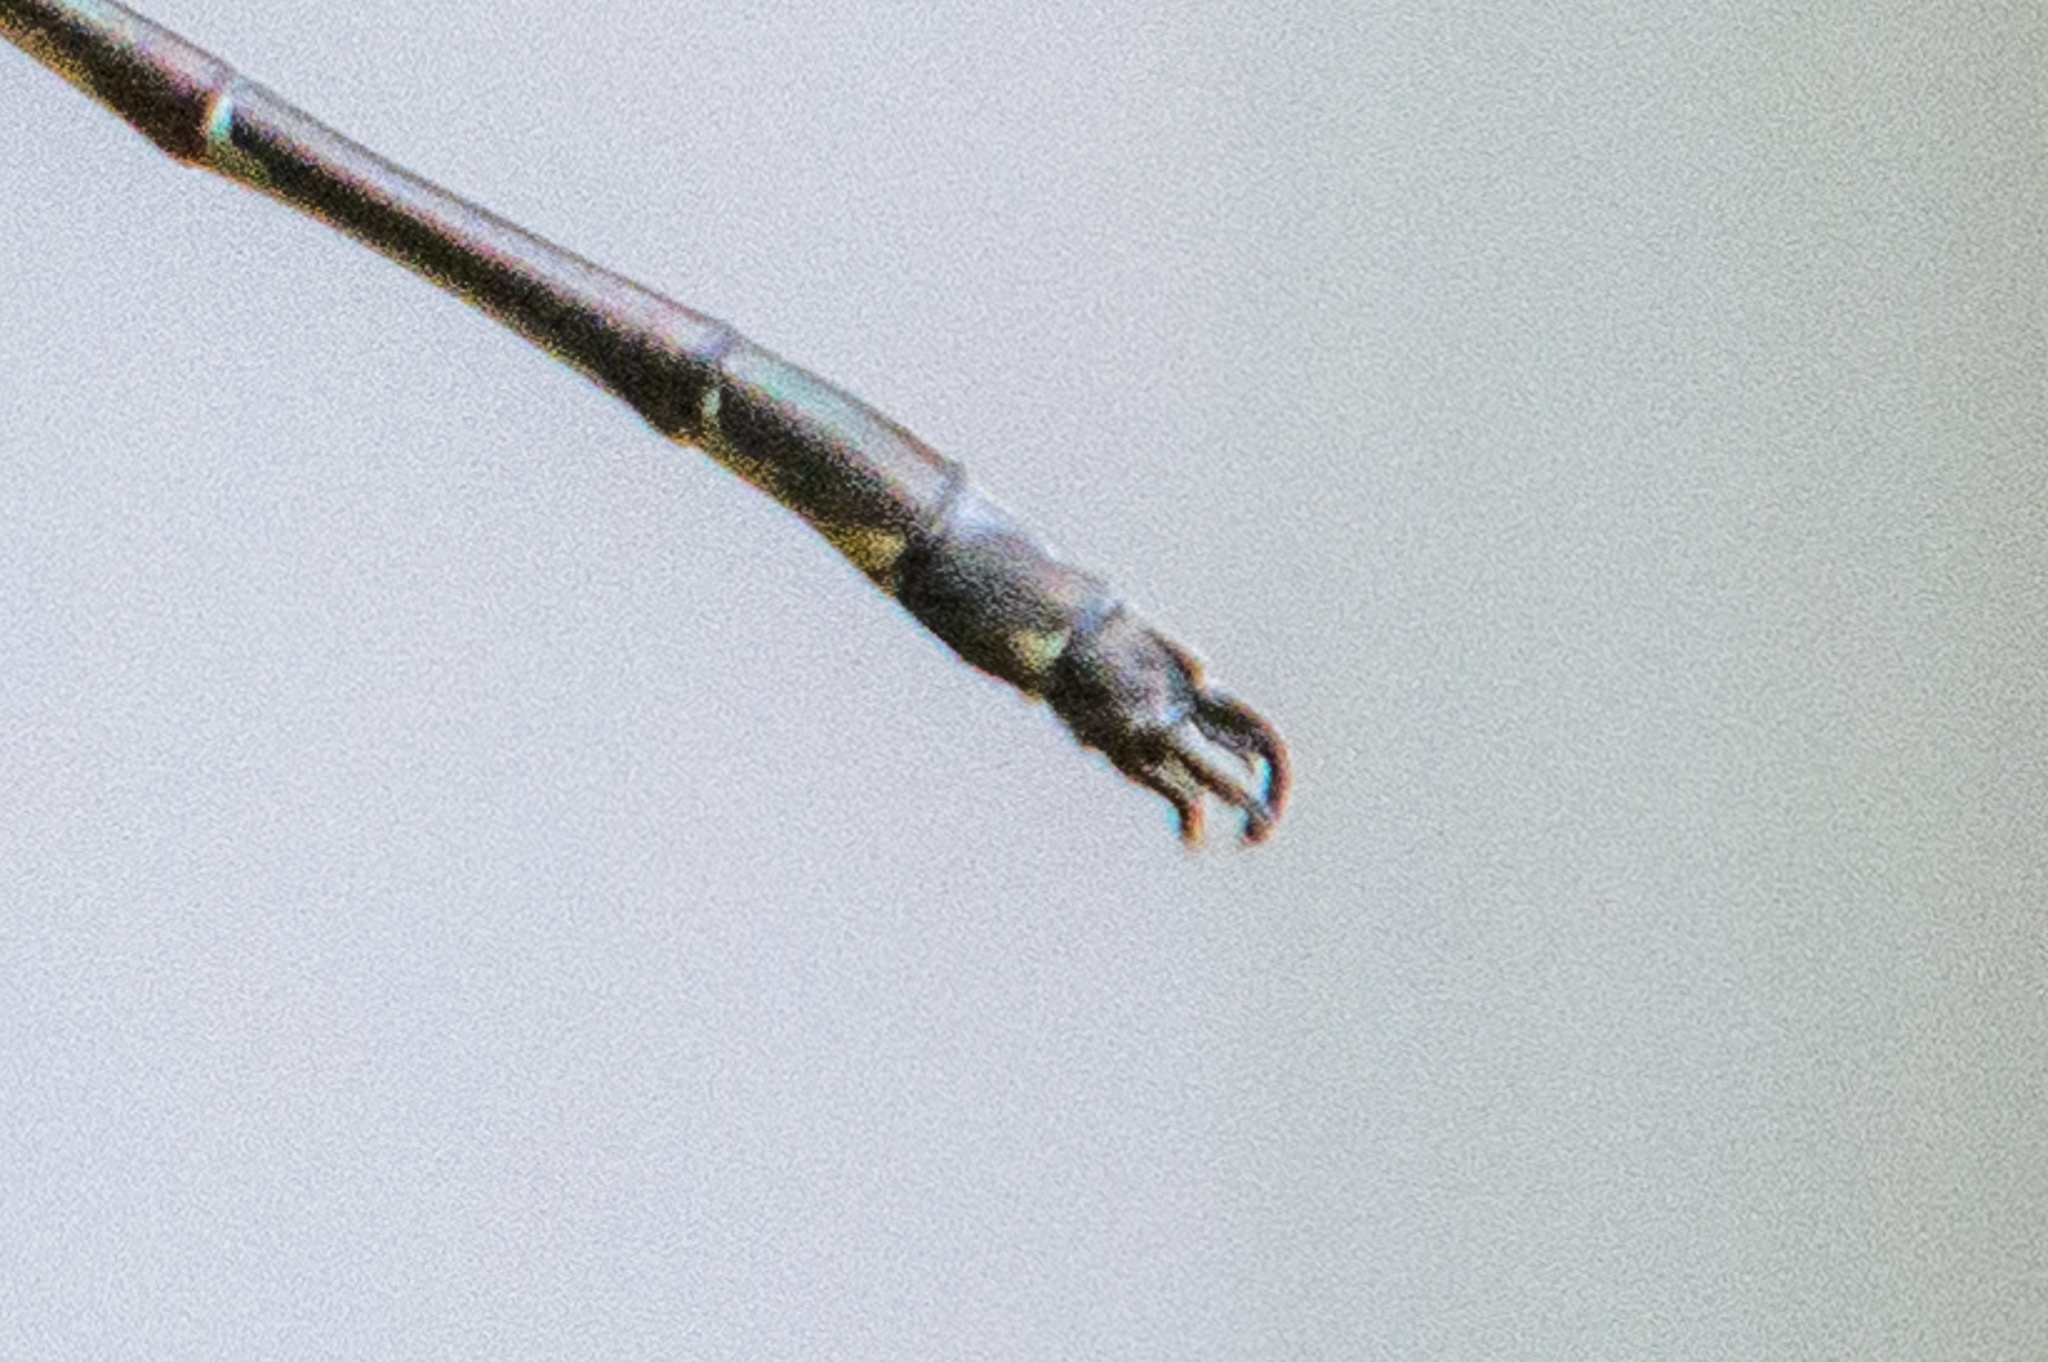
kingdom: Animalia
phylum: Arthropoda
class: Insecta
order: Odonata
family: Lestidae
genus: Lestes
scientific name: Lestes rectangularis
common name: Slender spreadwing
